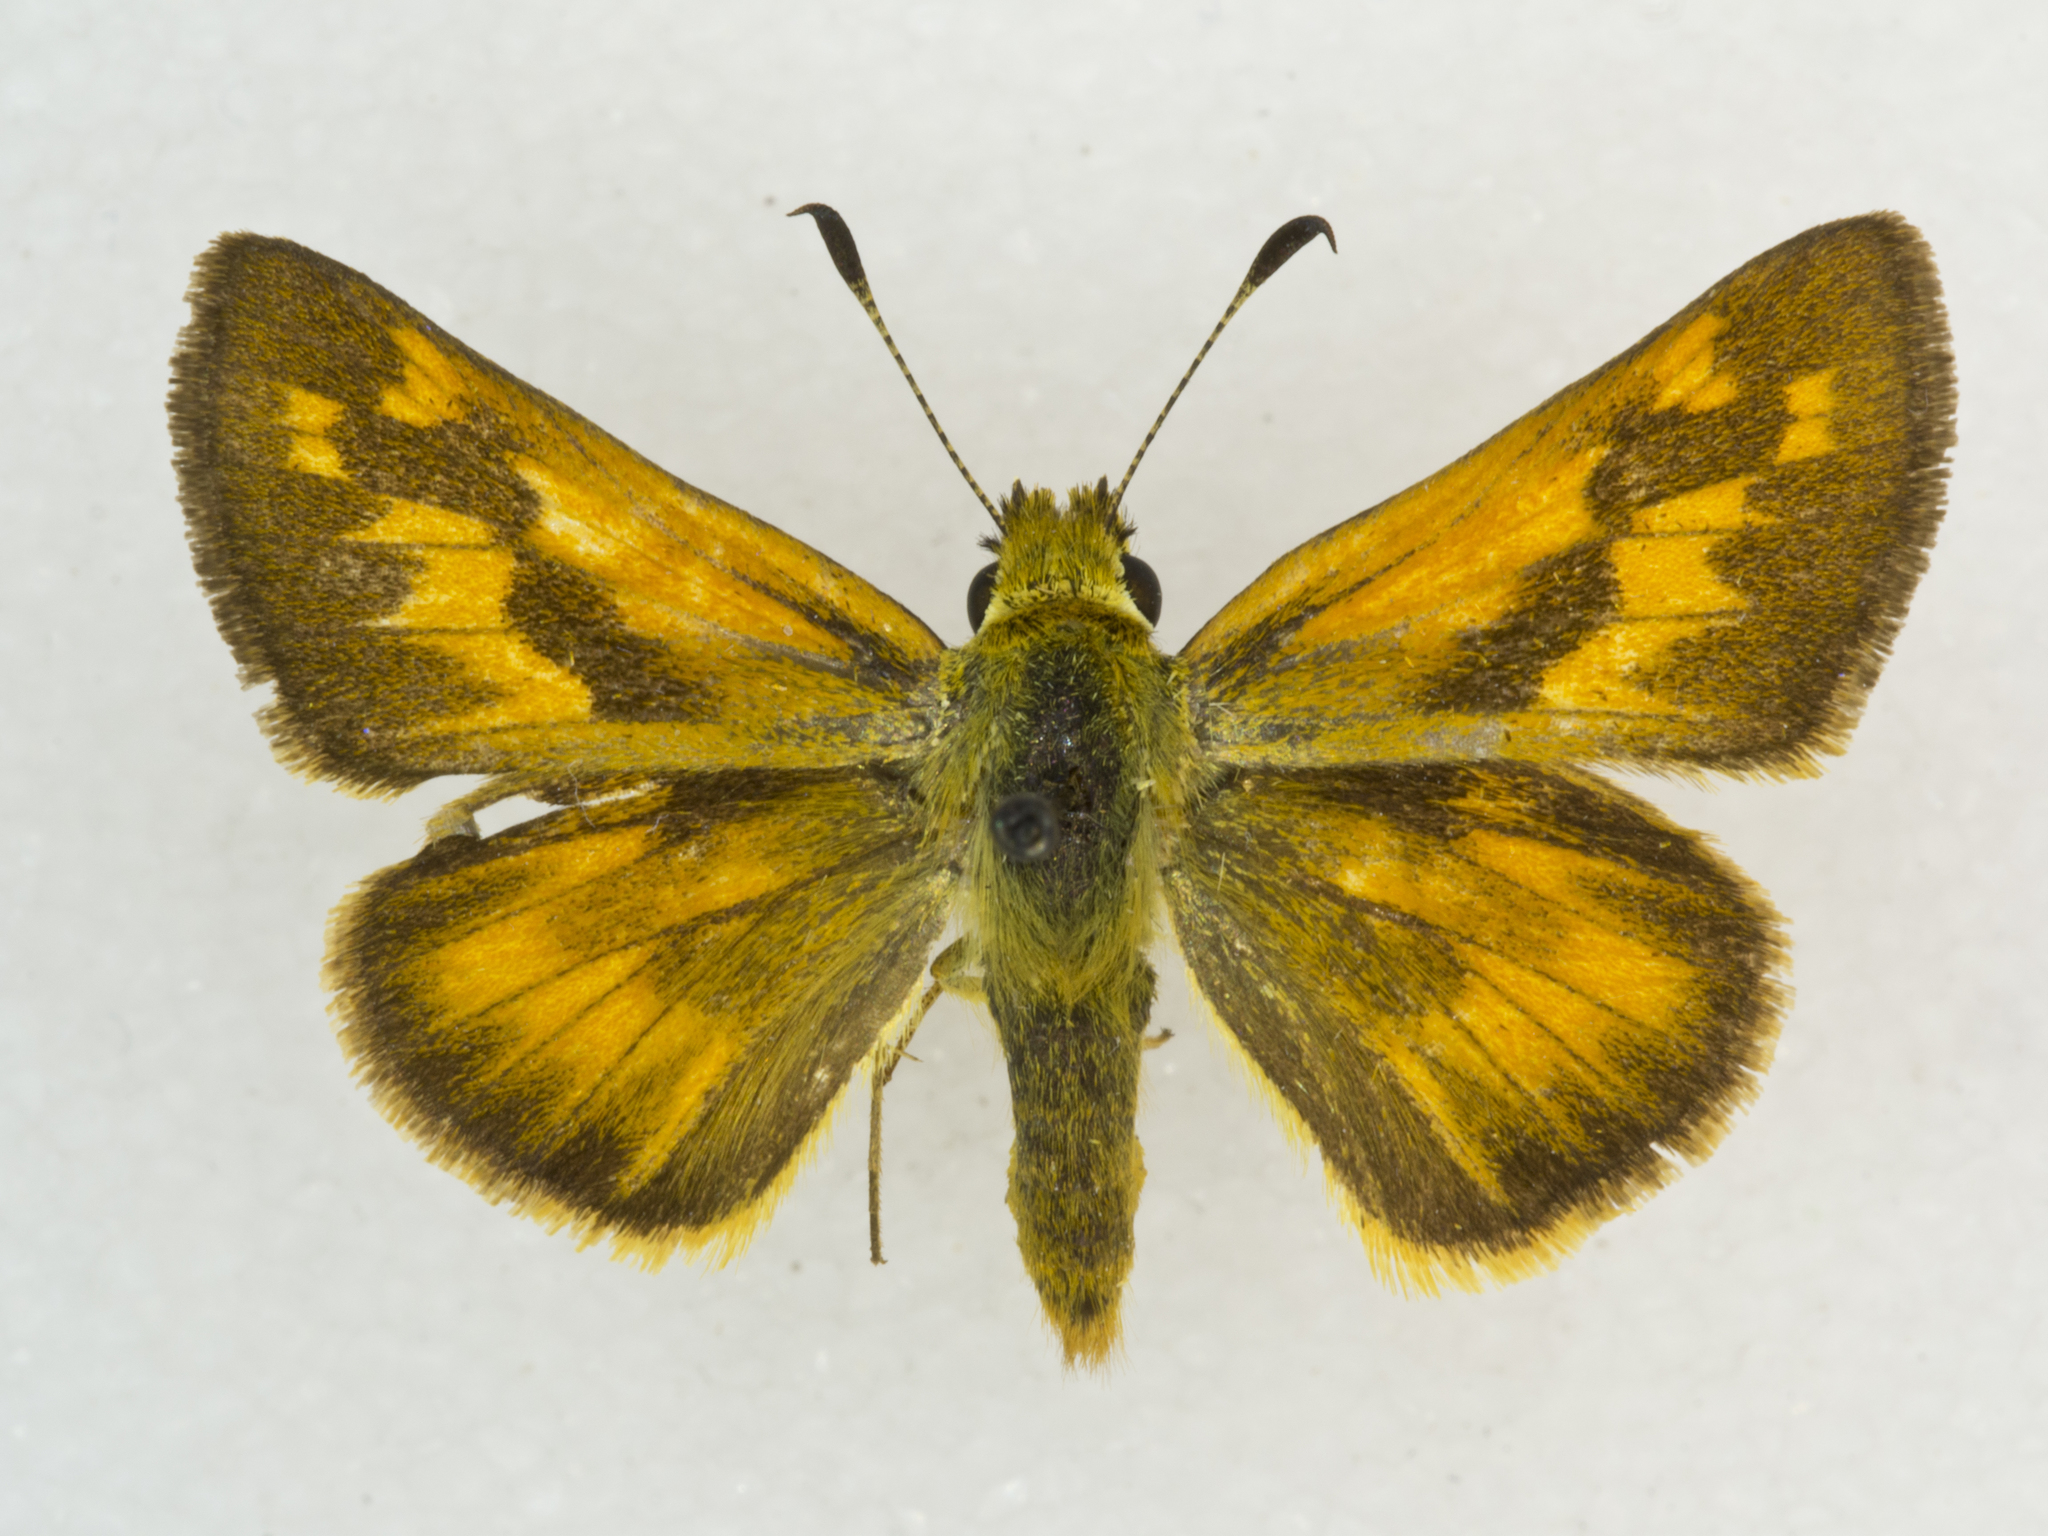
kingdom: Animalia
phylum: Arthropoda
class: Insecta
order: Lepidoptera
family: Hesperiidae
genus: Ochlodes
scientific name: Ochlodes sylvanoides
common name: Woodland skipper
